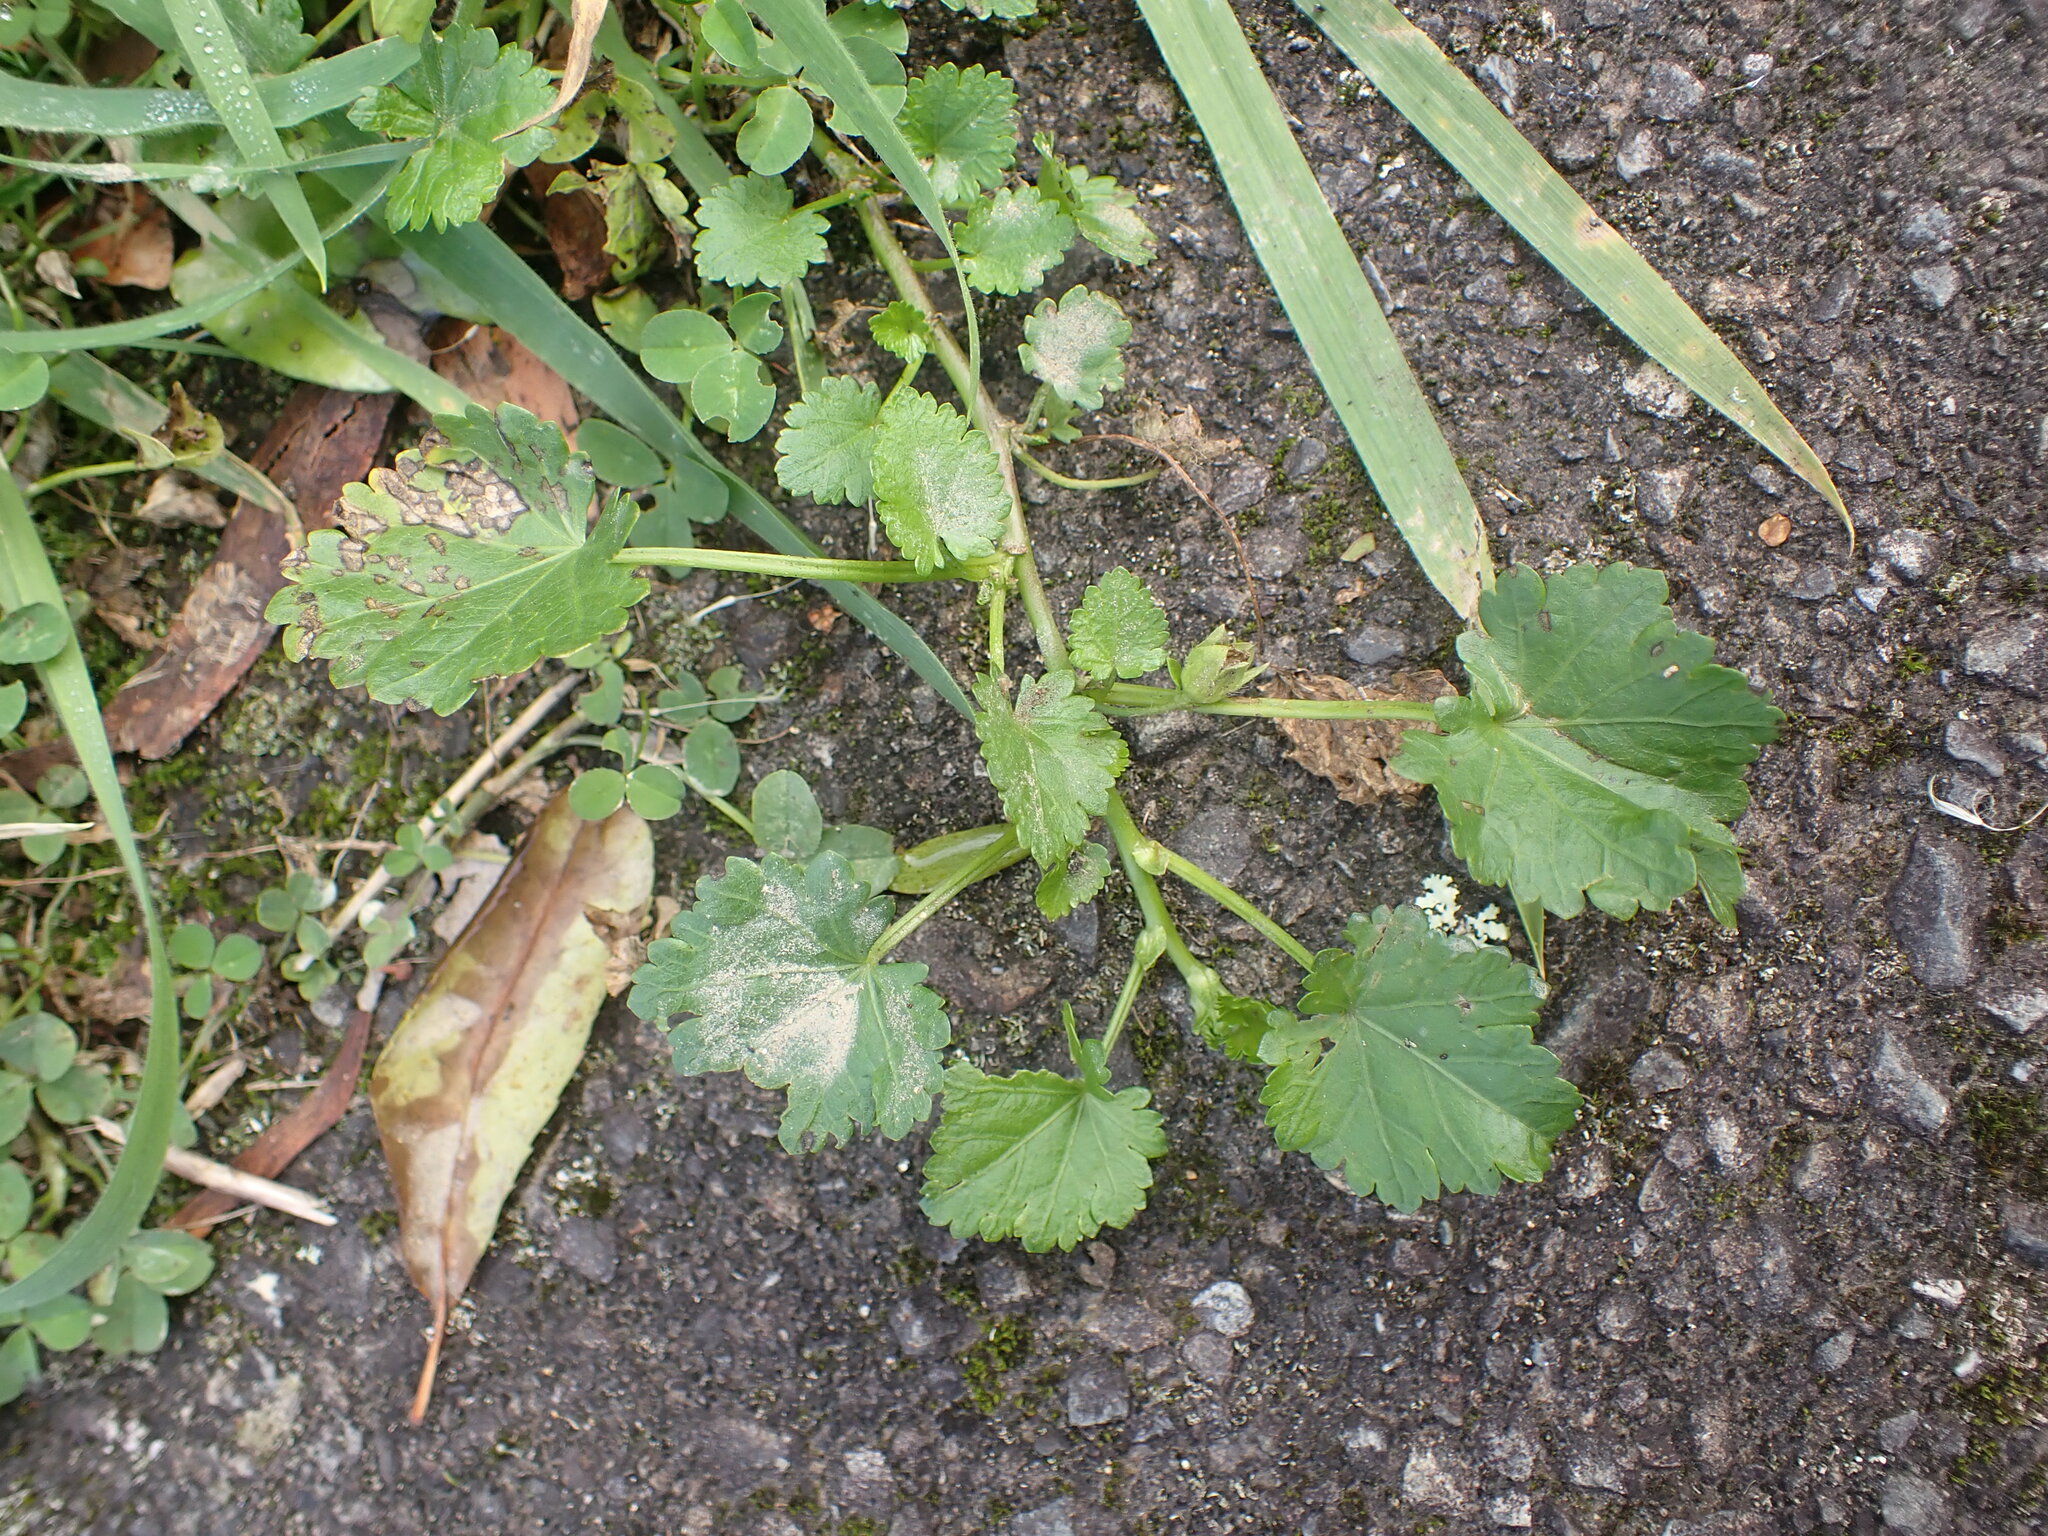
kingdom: Plantae
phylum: Tracheophyta
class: Magnoliopsida
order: Malvales
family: Malvaceae
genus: Modiola
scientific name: Modiola caroliniana
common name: Carolina bristlemallow
